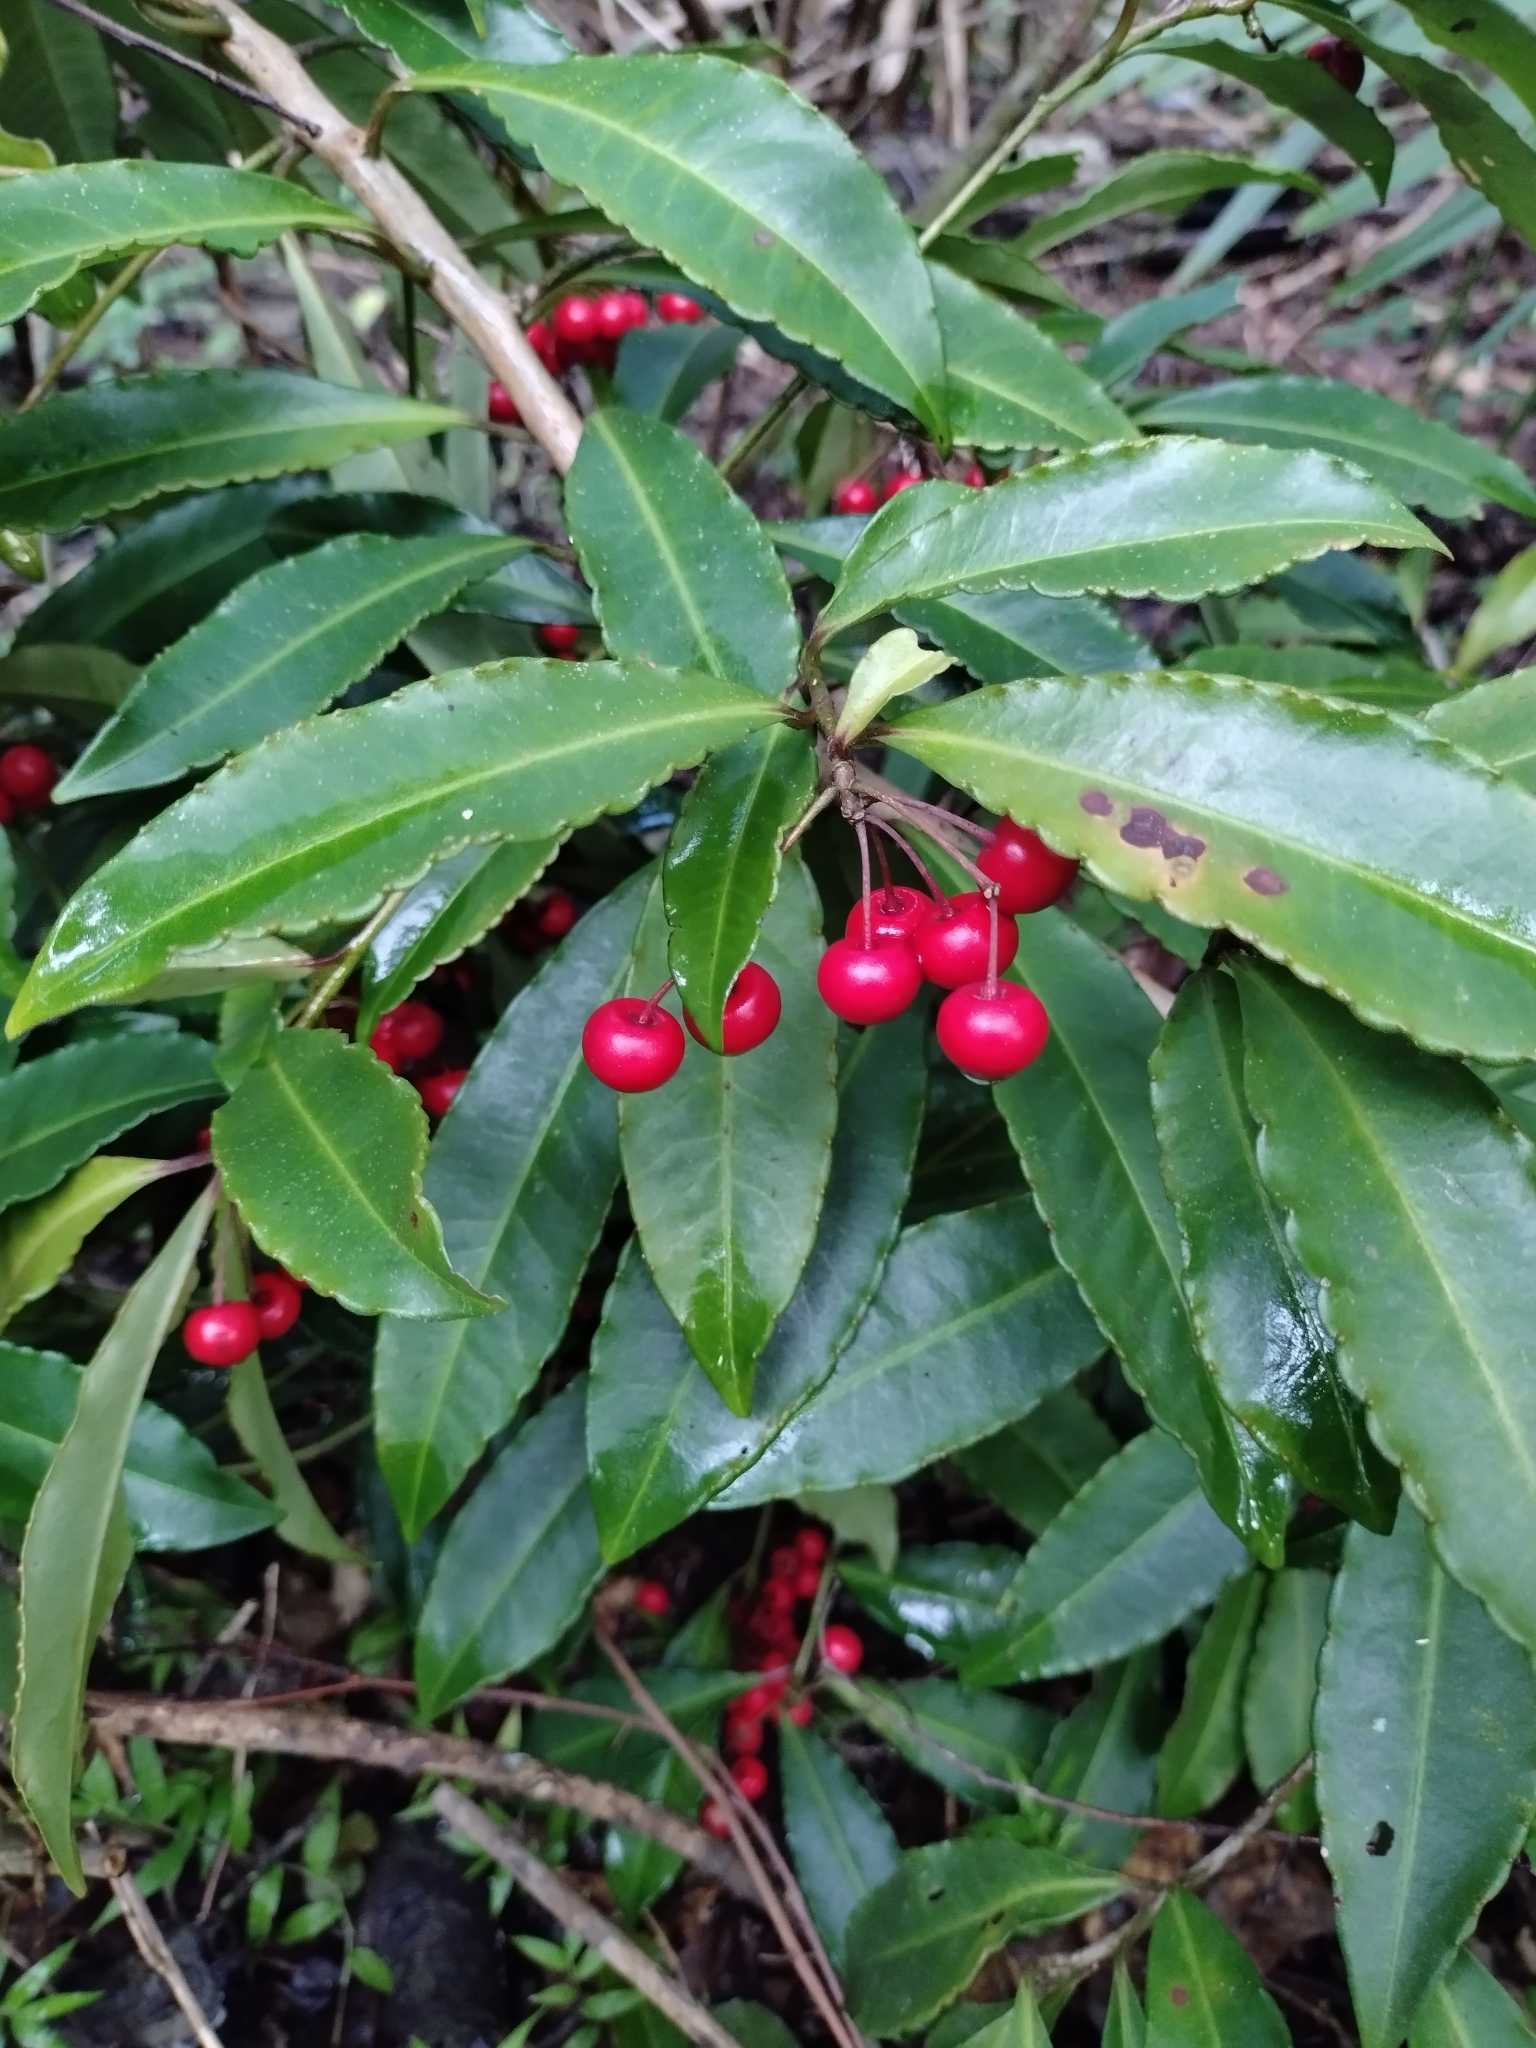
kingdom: Plantae
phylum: Tracheophyta
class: Magnoliopsida
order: Ericales
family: Primulaceae
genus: Ardisia
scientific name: Ardisia crenata
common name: Hen's eyes
